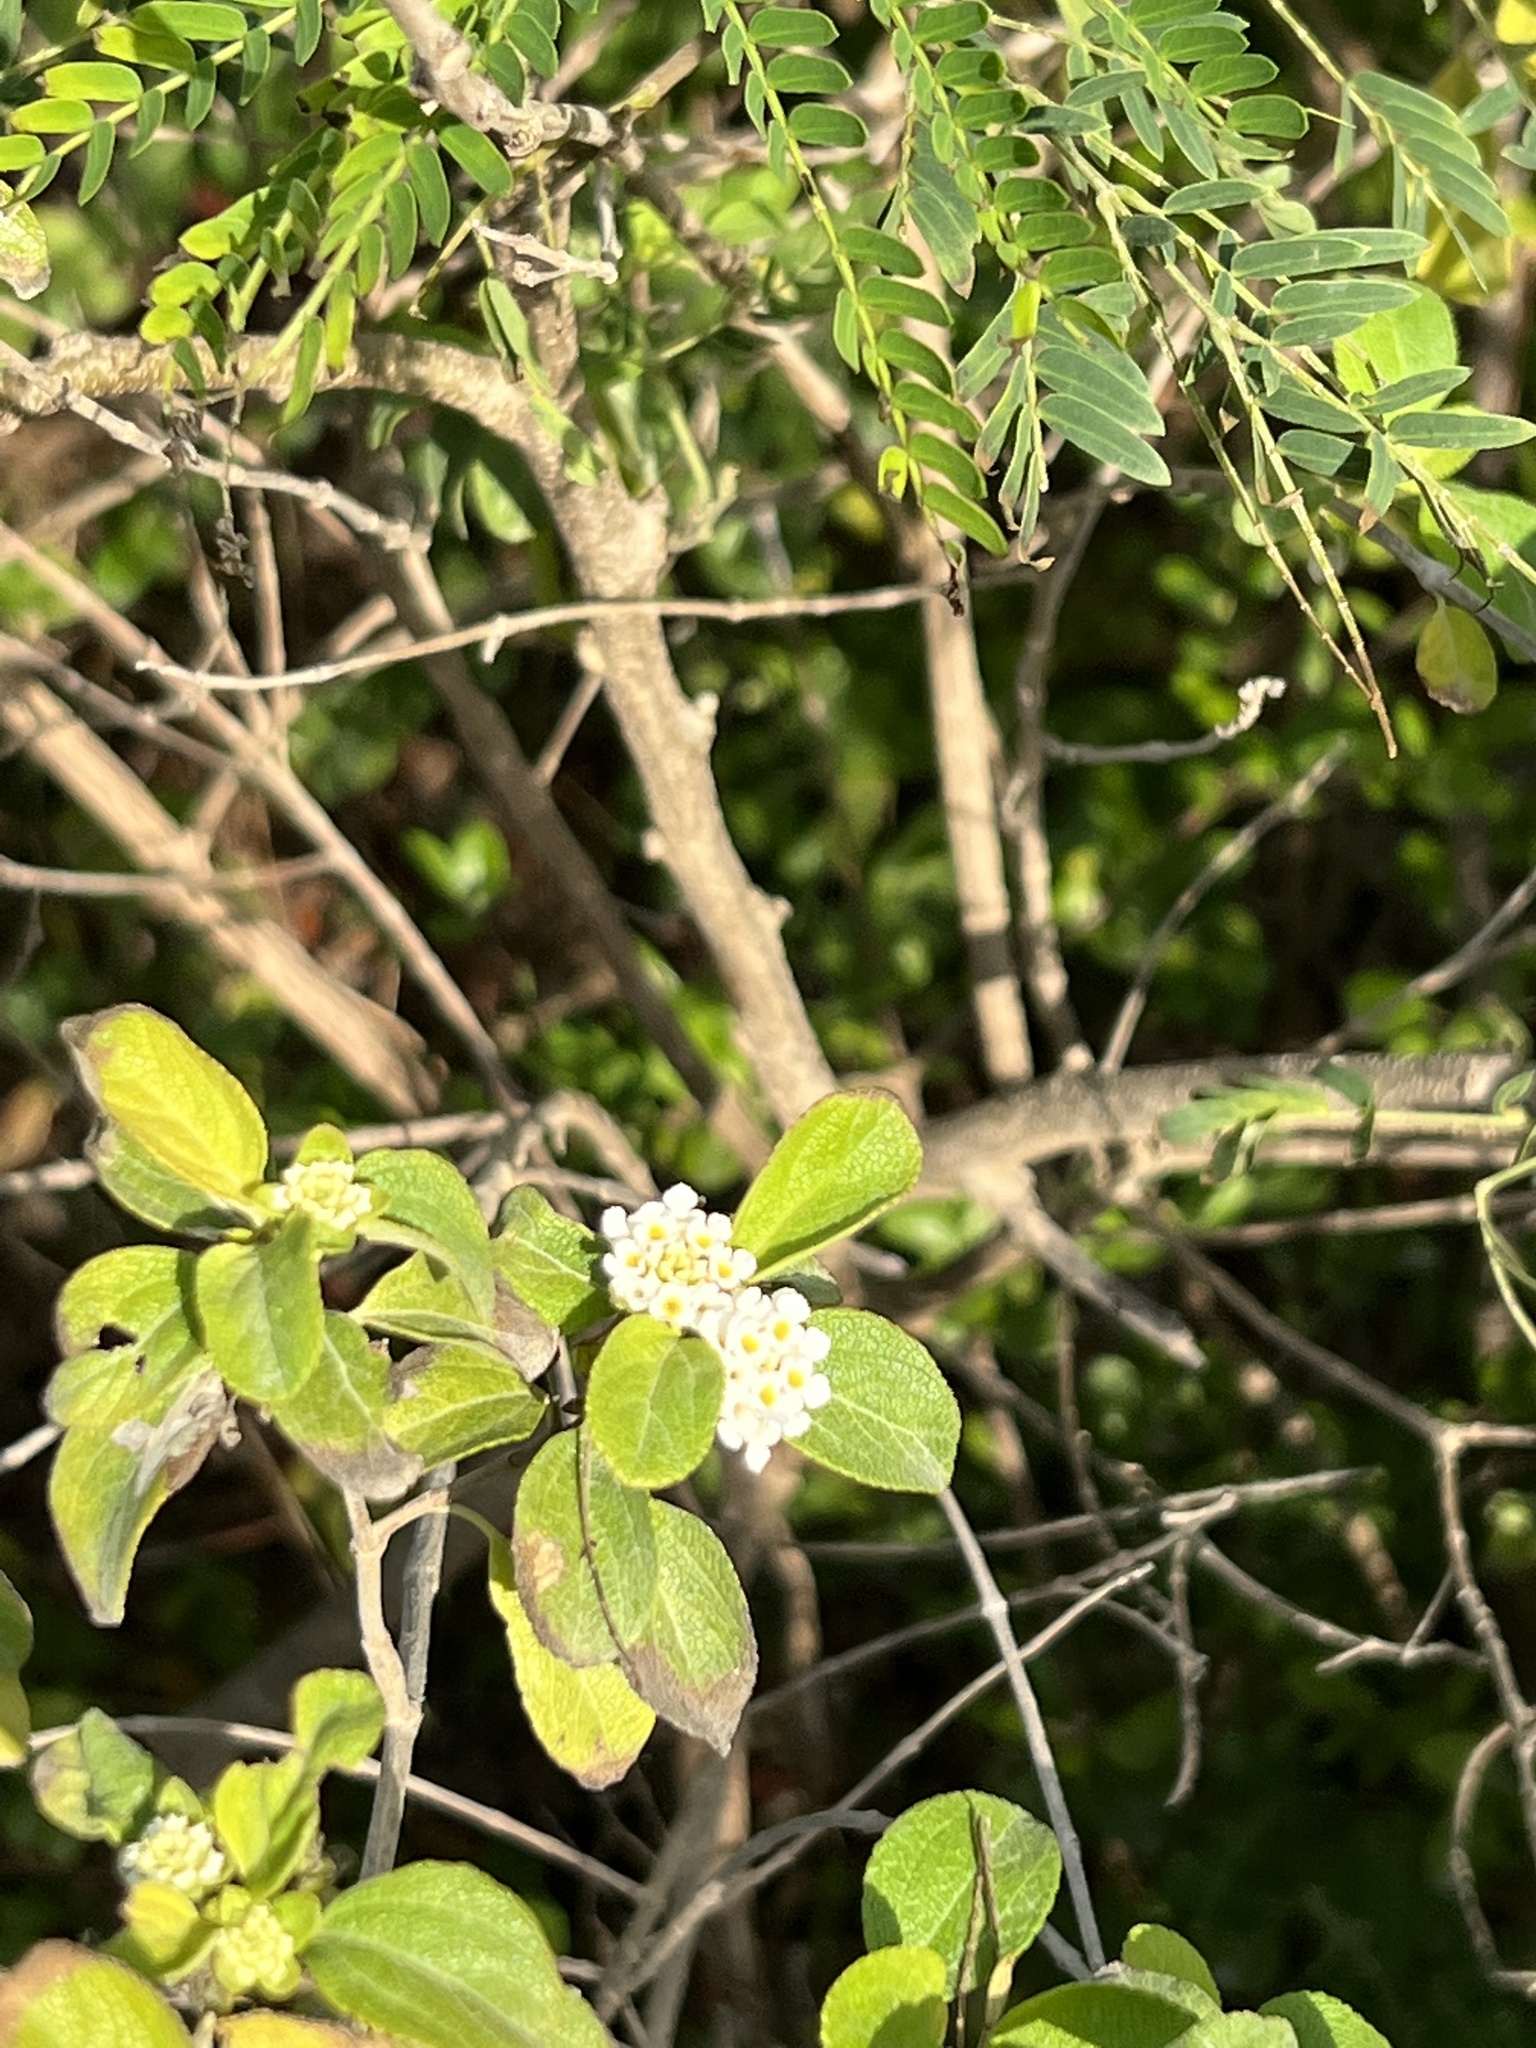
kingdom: Plantae
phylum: Tracheophyta
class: Magnoliopsida
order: Lamiales
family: Verbenaceae
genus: Lantana
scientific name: Lantana involucrata
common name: Black sage
